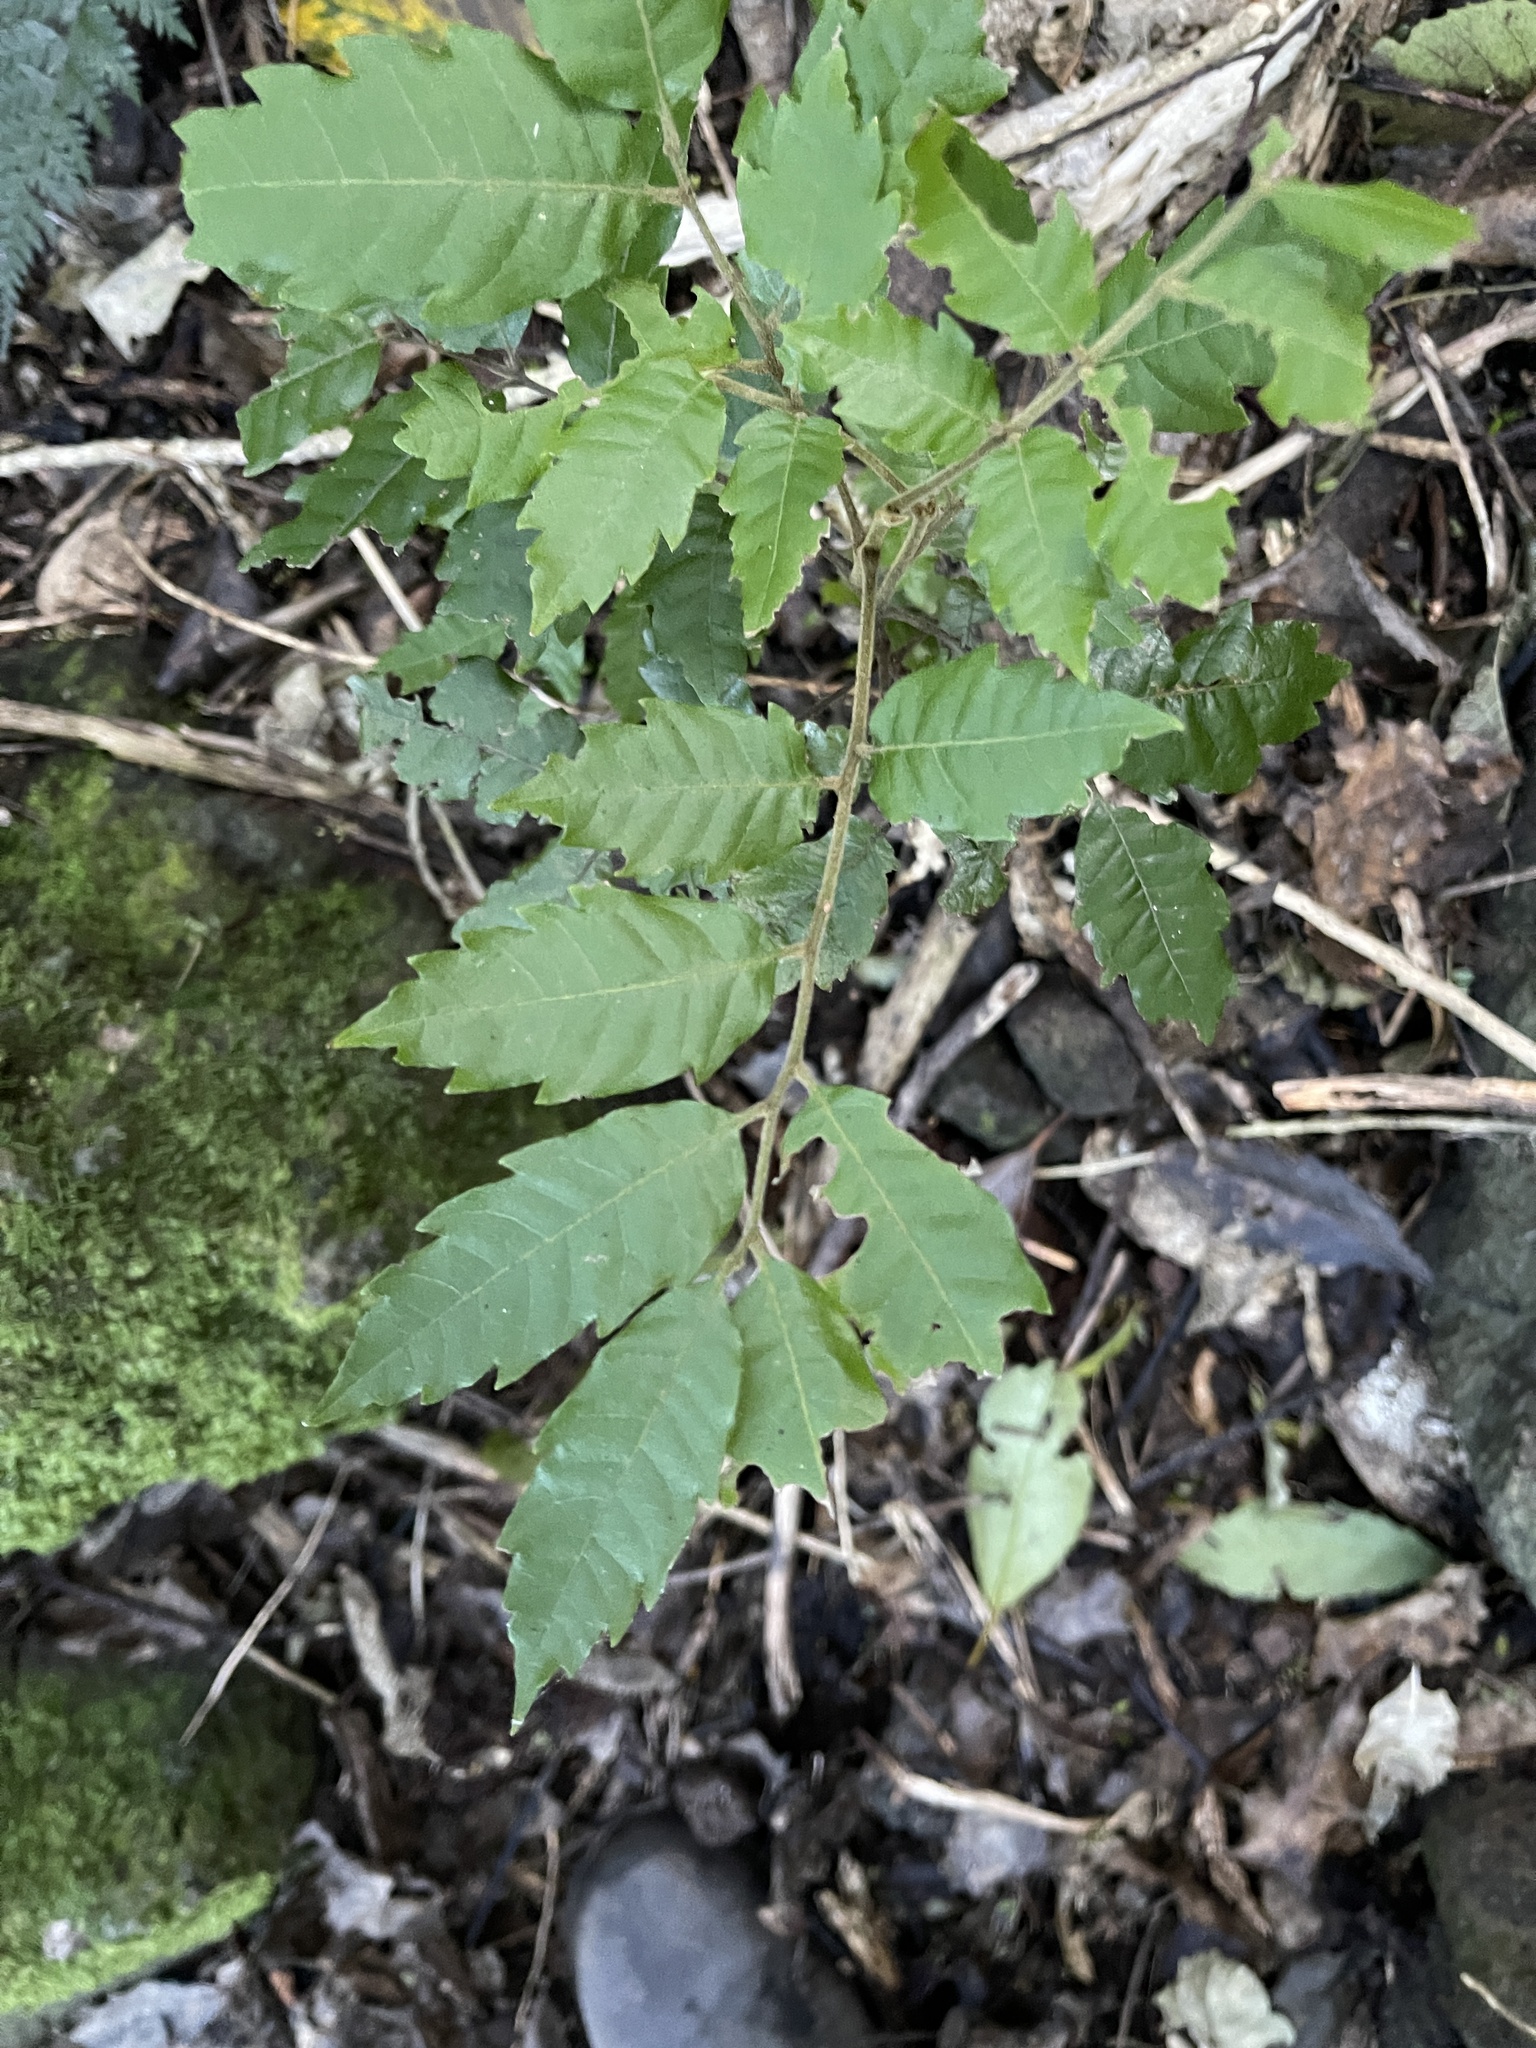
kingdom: Plantae
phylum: Tracheophyta
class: Magnoliopsida
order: Sapindales
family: Sapindaceae
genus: Alectryon
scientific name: Alectryon excelsus
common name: Three kings titoki
